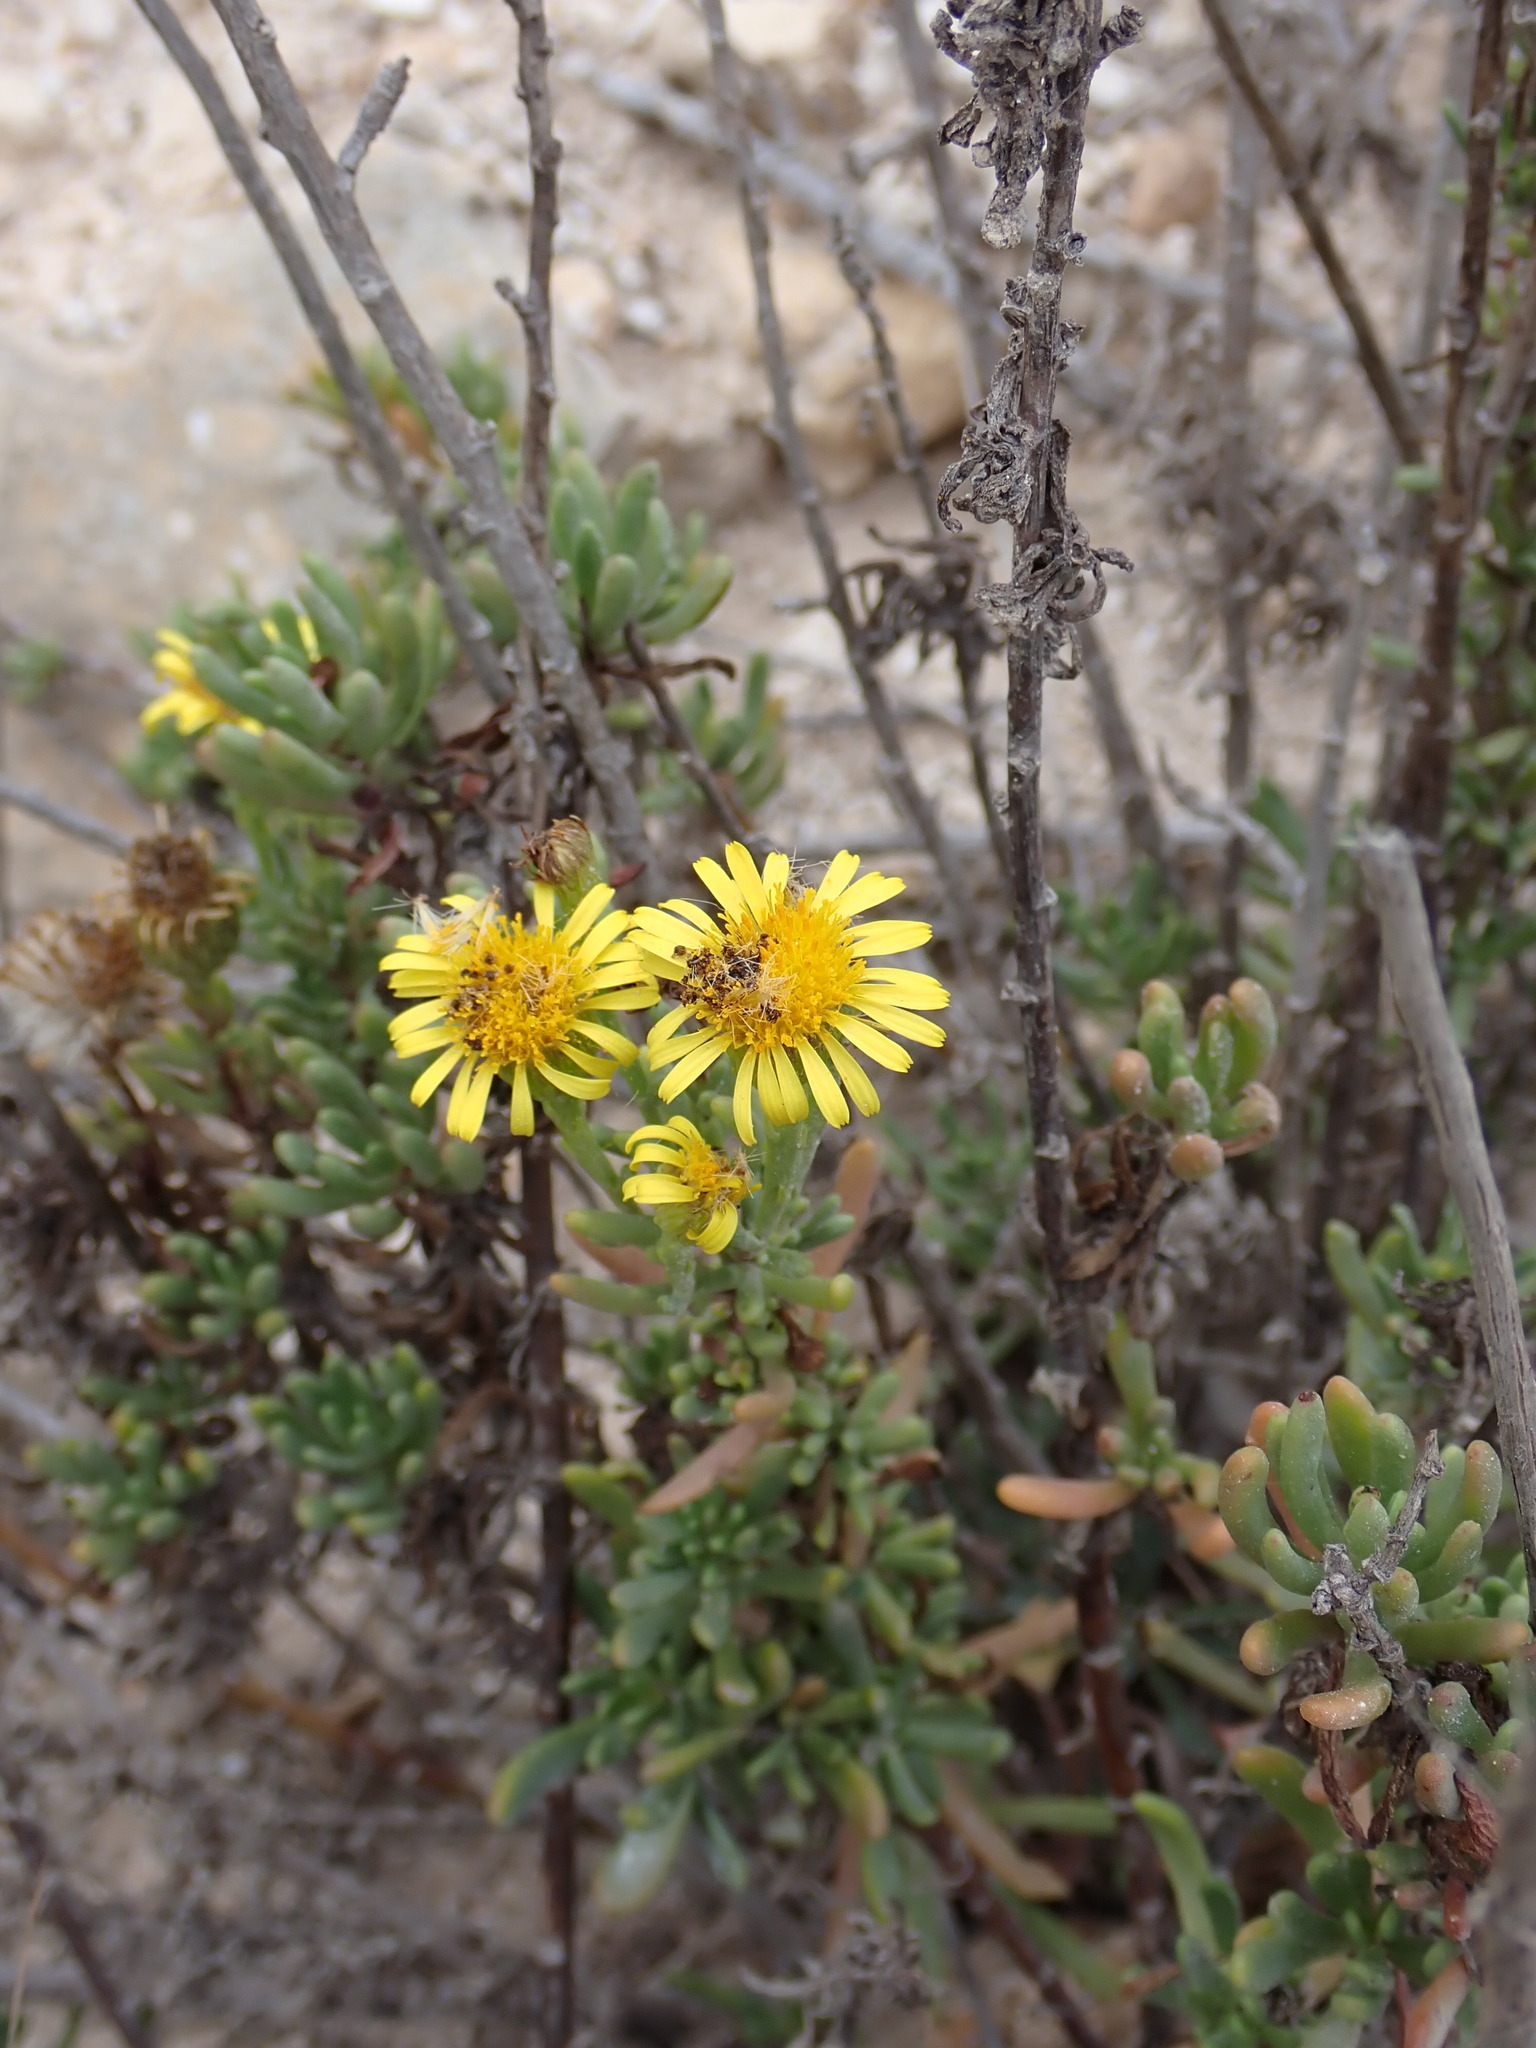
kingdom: Plantae
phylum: Tracheophyta
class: Magnoliopsida
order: Asterales
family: Asteraceae
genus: Limbarda
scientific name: Limbarda crithmoides
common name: Golden samphire
